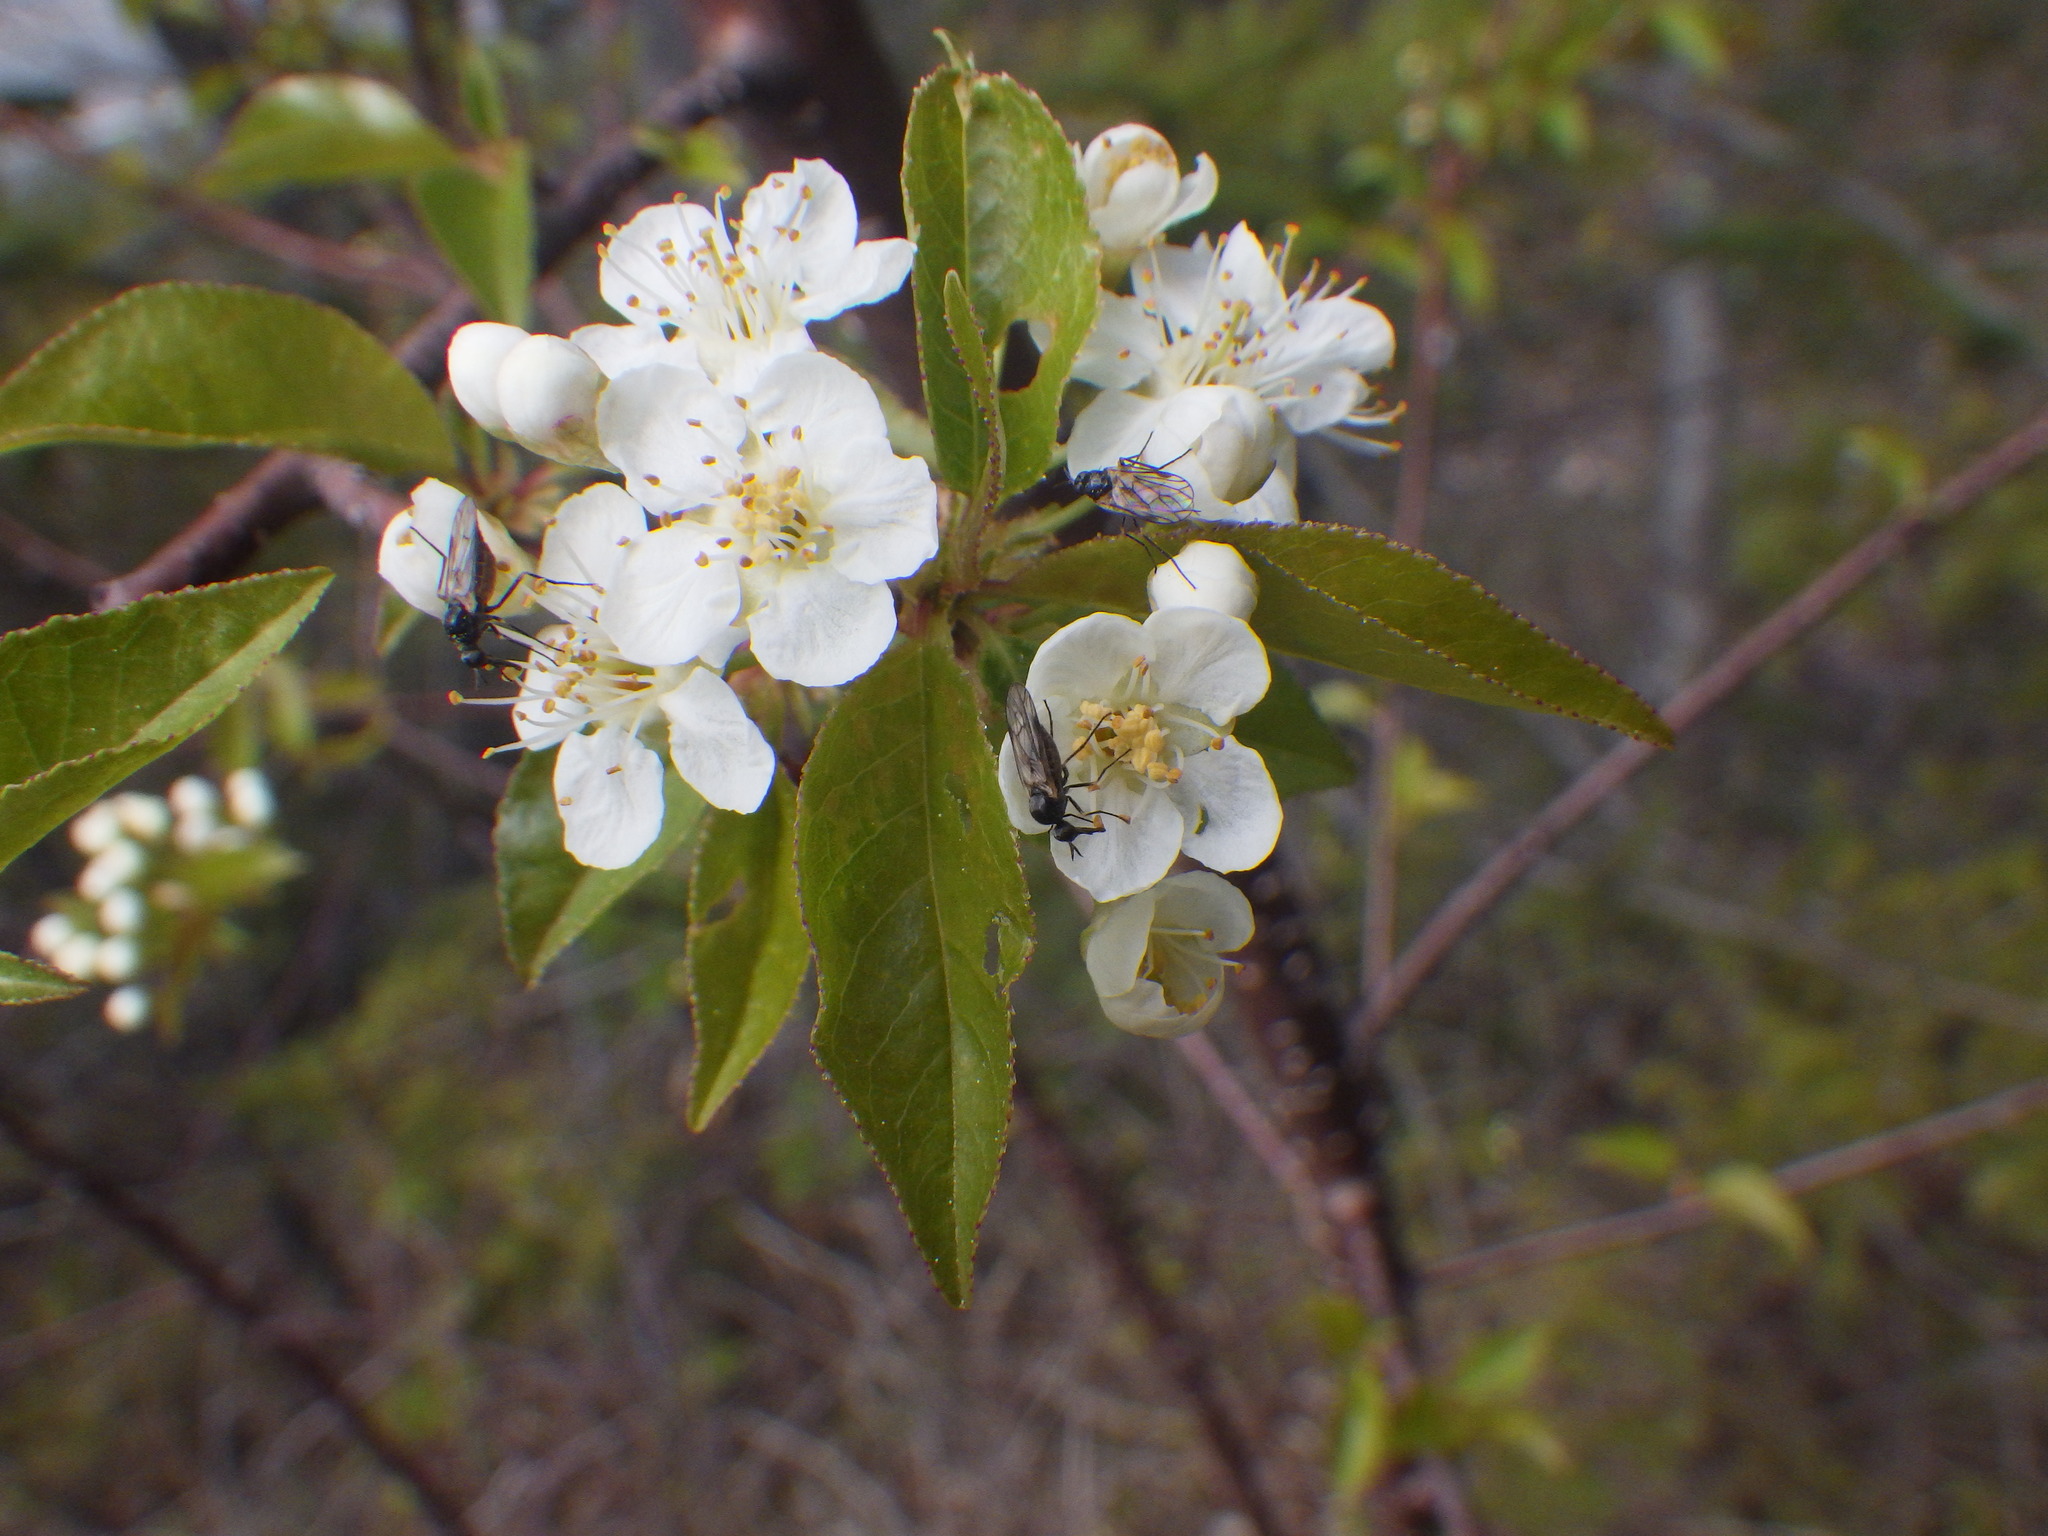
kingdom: Plantae
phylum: Tracheophyta
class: Magnoliopsida
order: Rosales
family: Rosaceae
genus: Prunus
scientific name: Prunus pensylvanica
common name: Pin cherry
